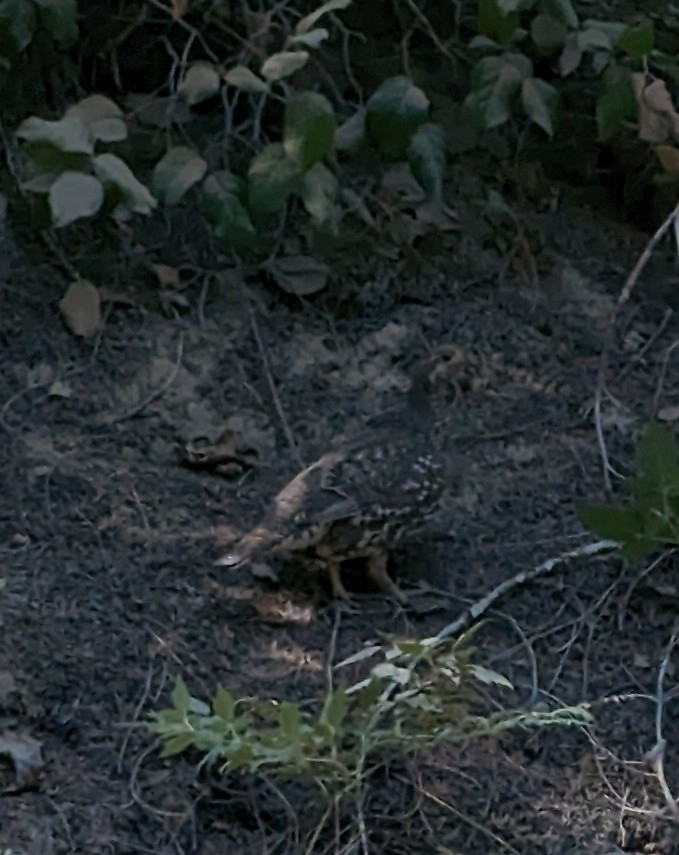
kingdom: Animalia
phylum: Chordata
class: Aves
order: Galliformes
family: Phasianidae
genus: Dendragapus
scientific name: Dendragapus fuliginosus
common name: Sooty grouse
